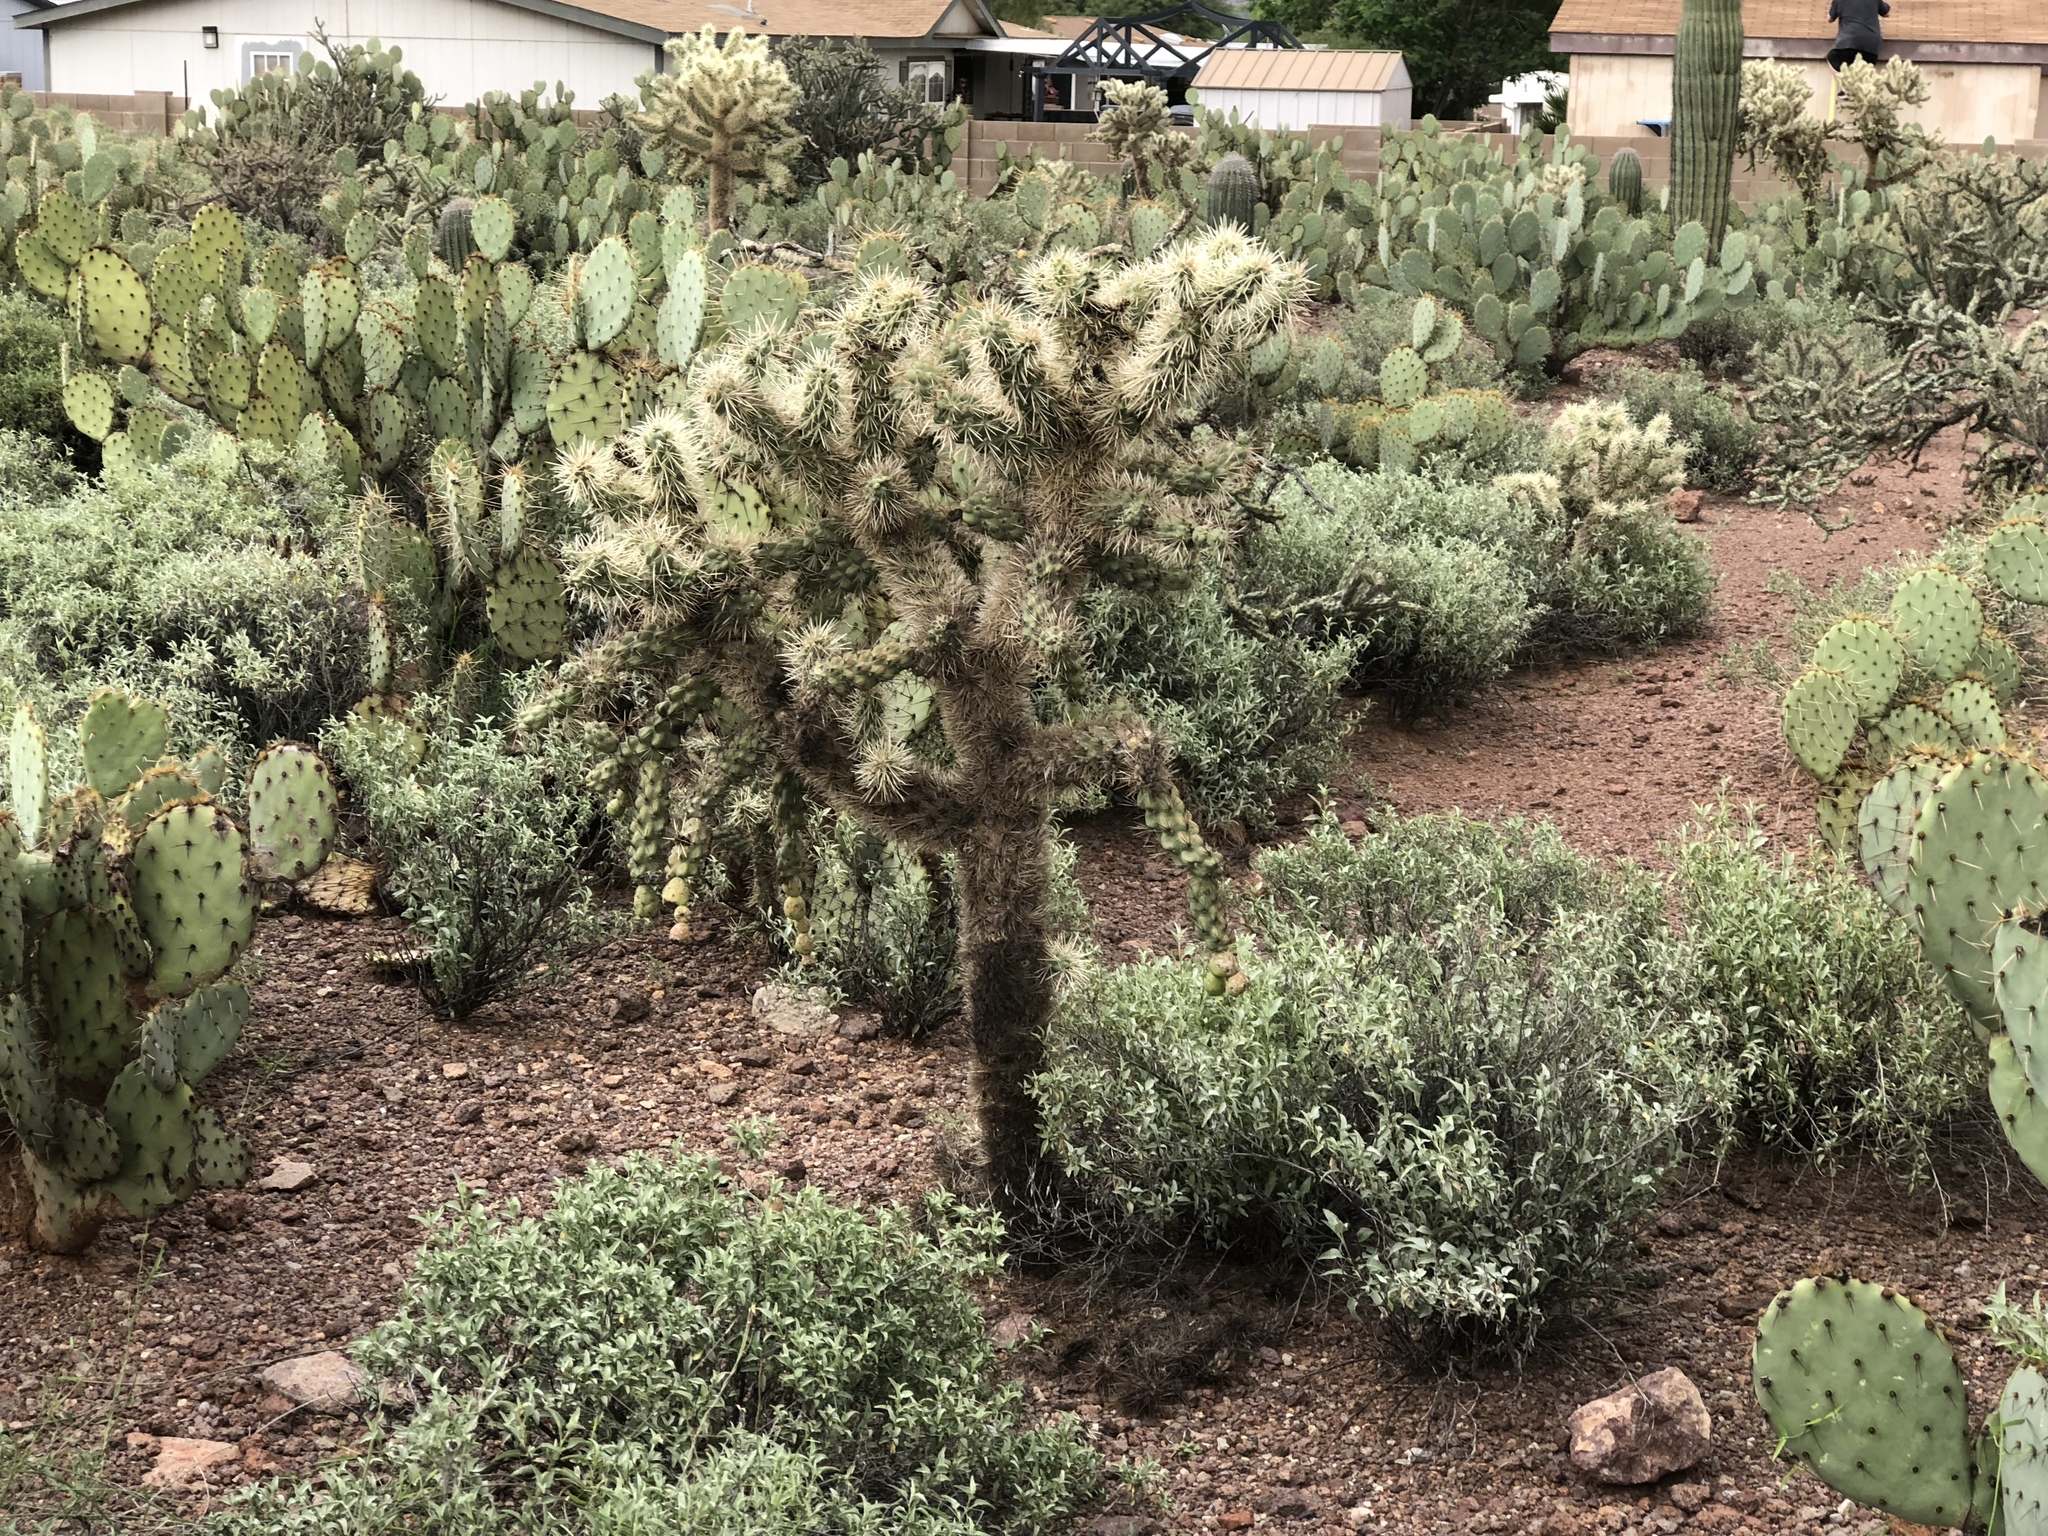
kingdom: Plantae
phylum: Tracheophyta
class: Magnoliopsida
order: Caryophyllales
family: Cactaceae
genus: Cylindropuntia
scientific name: Cylindropuntia fulgida
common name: Jumping cholla
